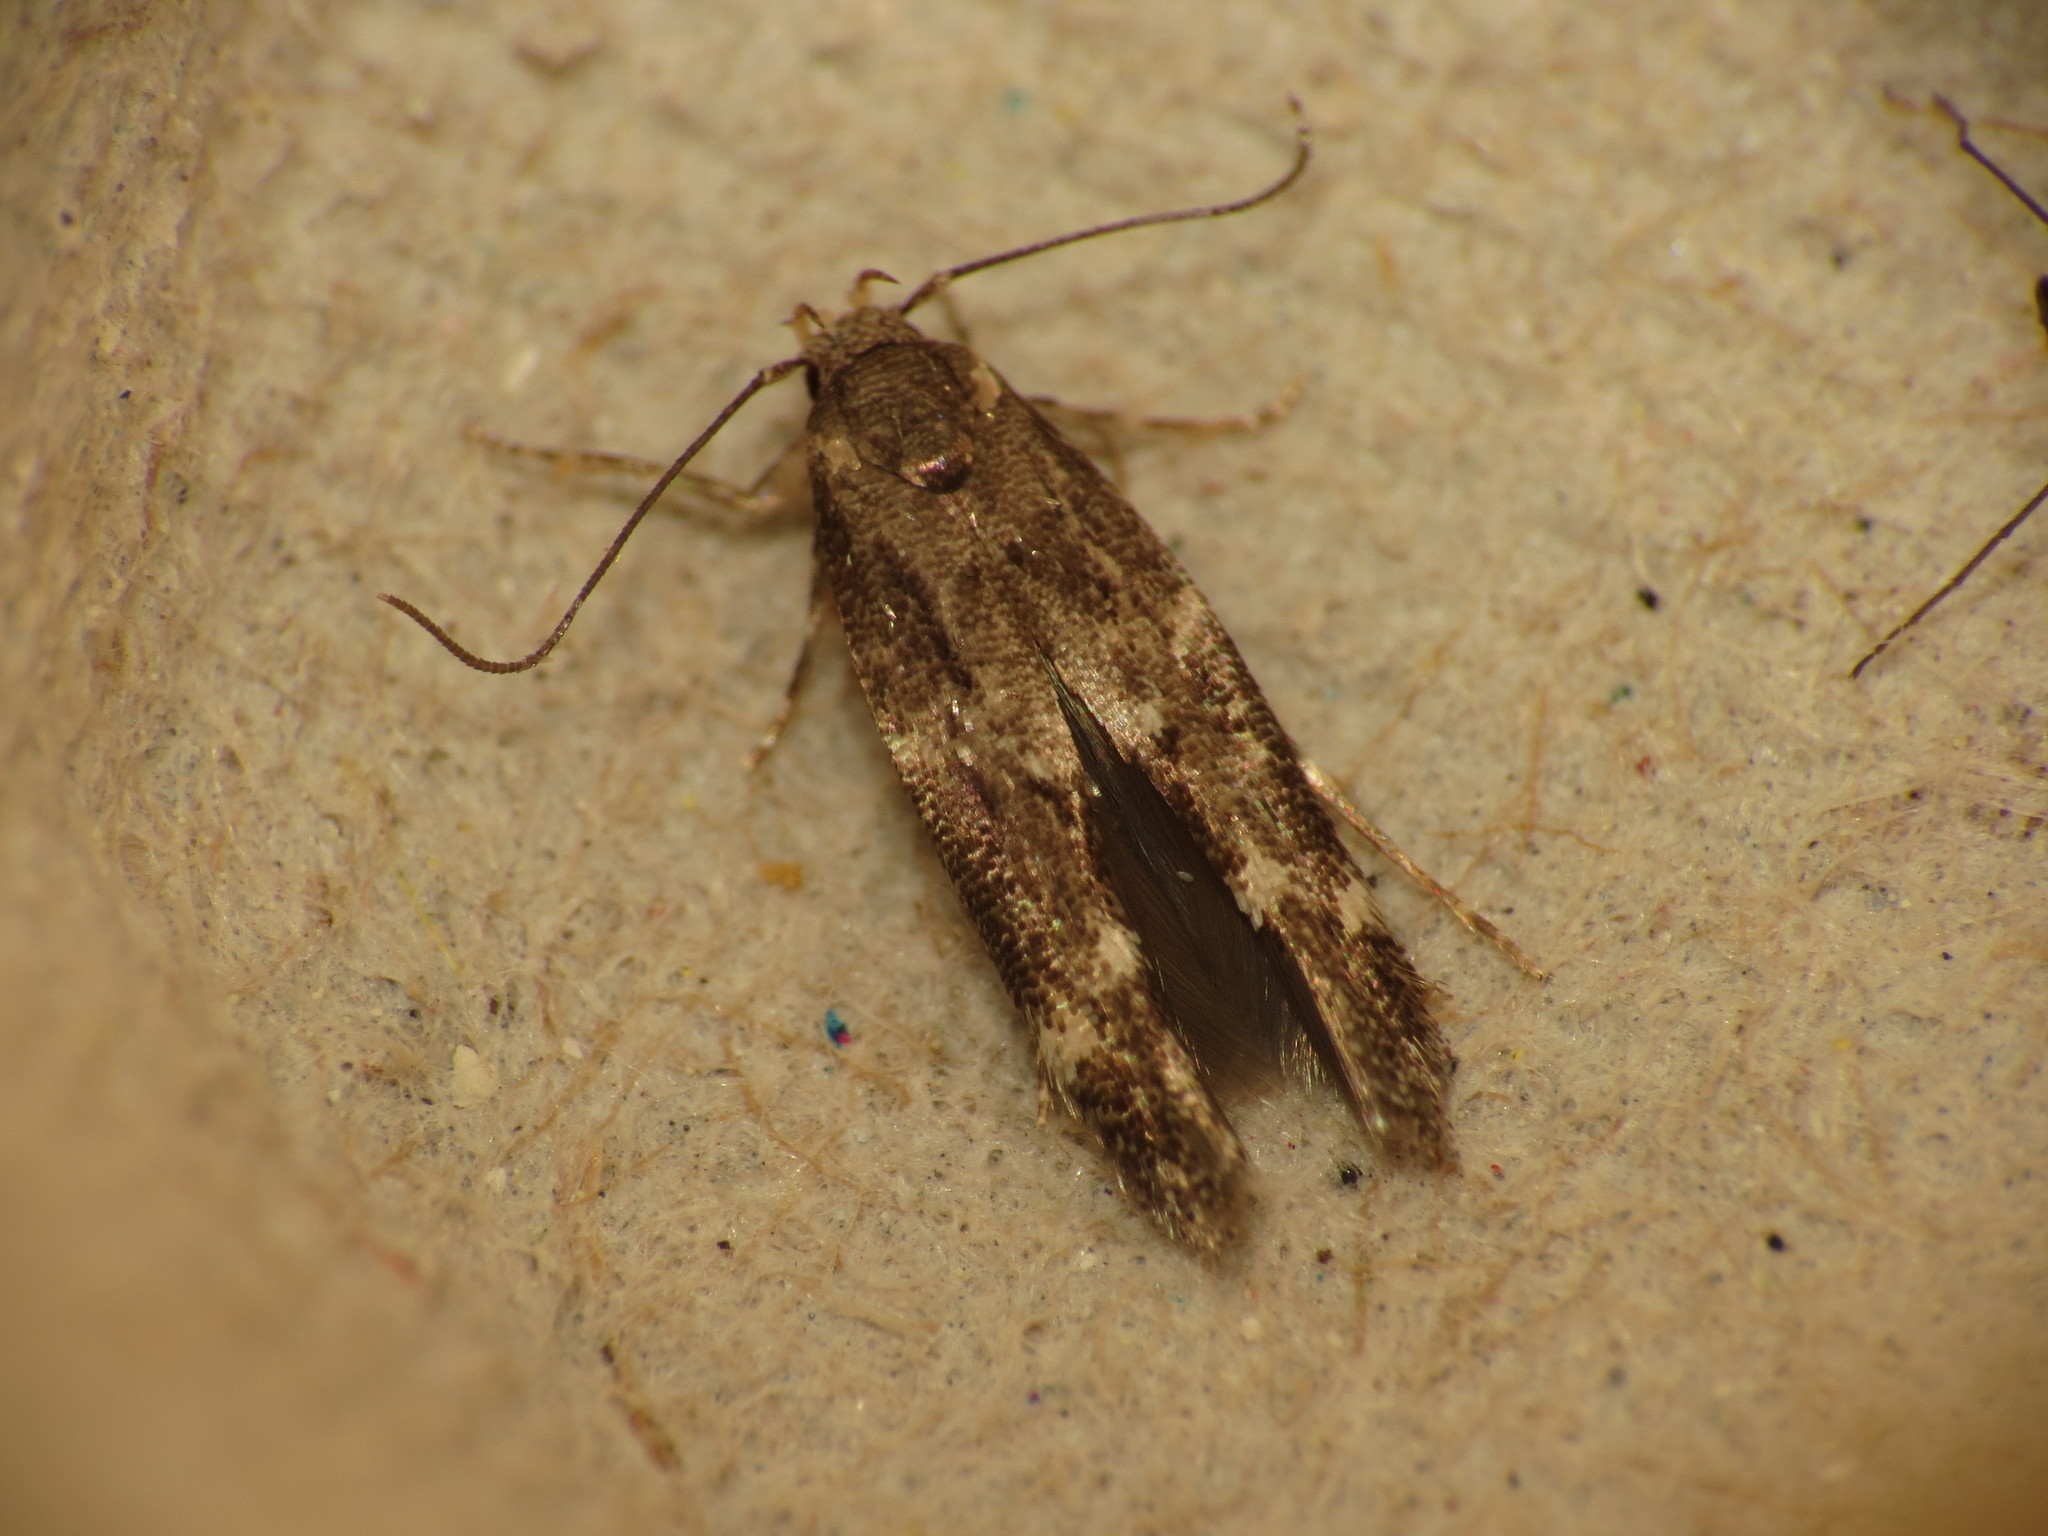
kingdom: Animalia
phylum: Arthropoda
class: Insecta
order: Lepidoptera
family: Momphidae
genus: Mompha
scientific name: Mompha subbistrigella
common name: Garden cosmet
